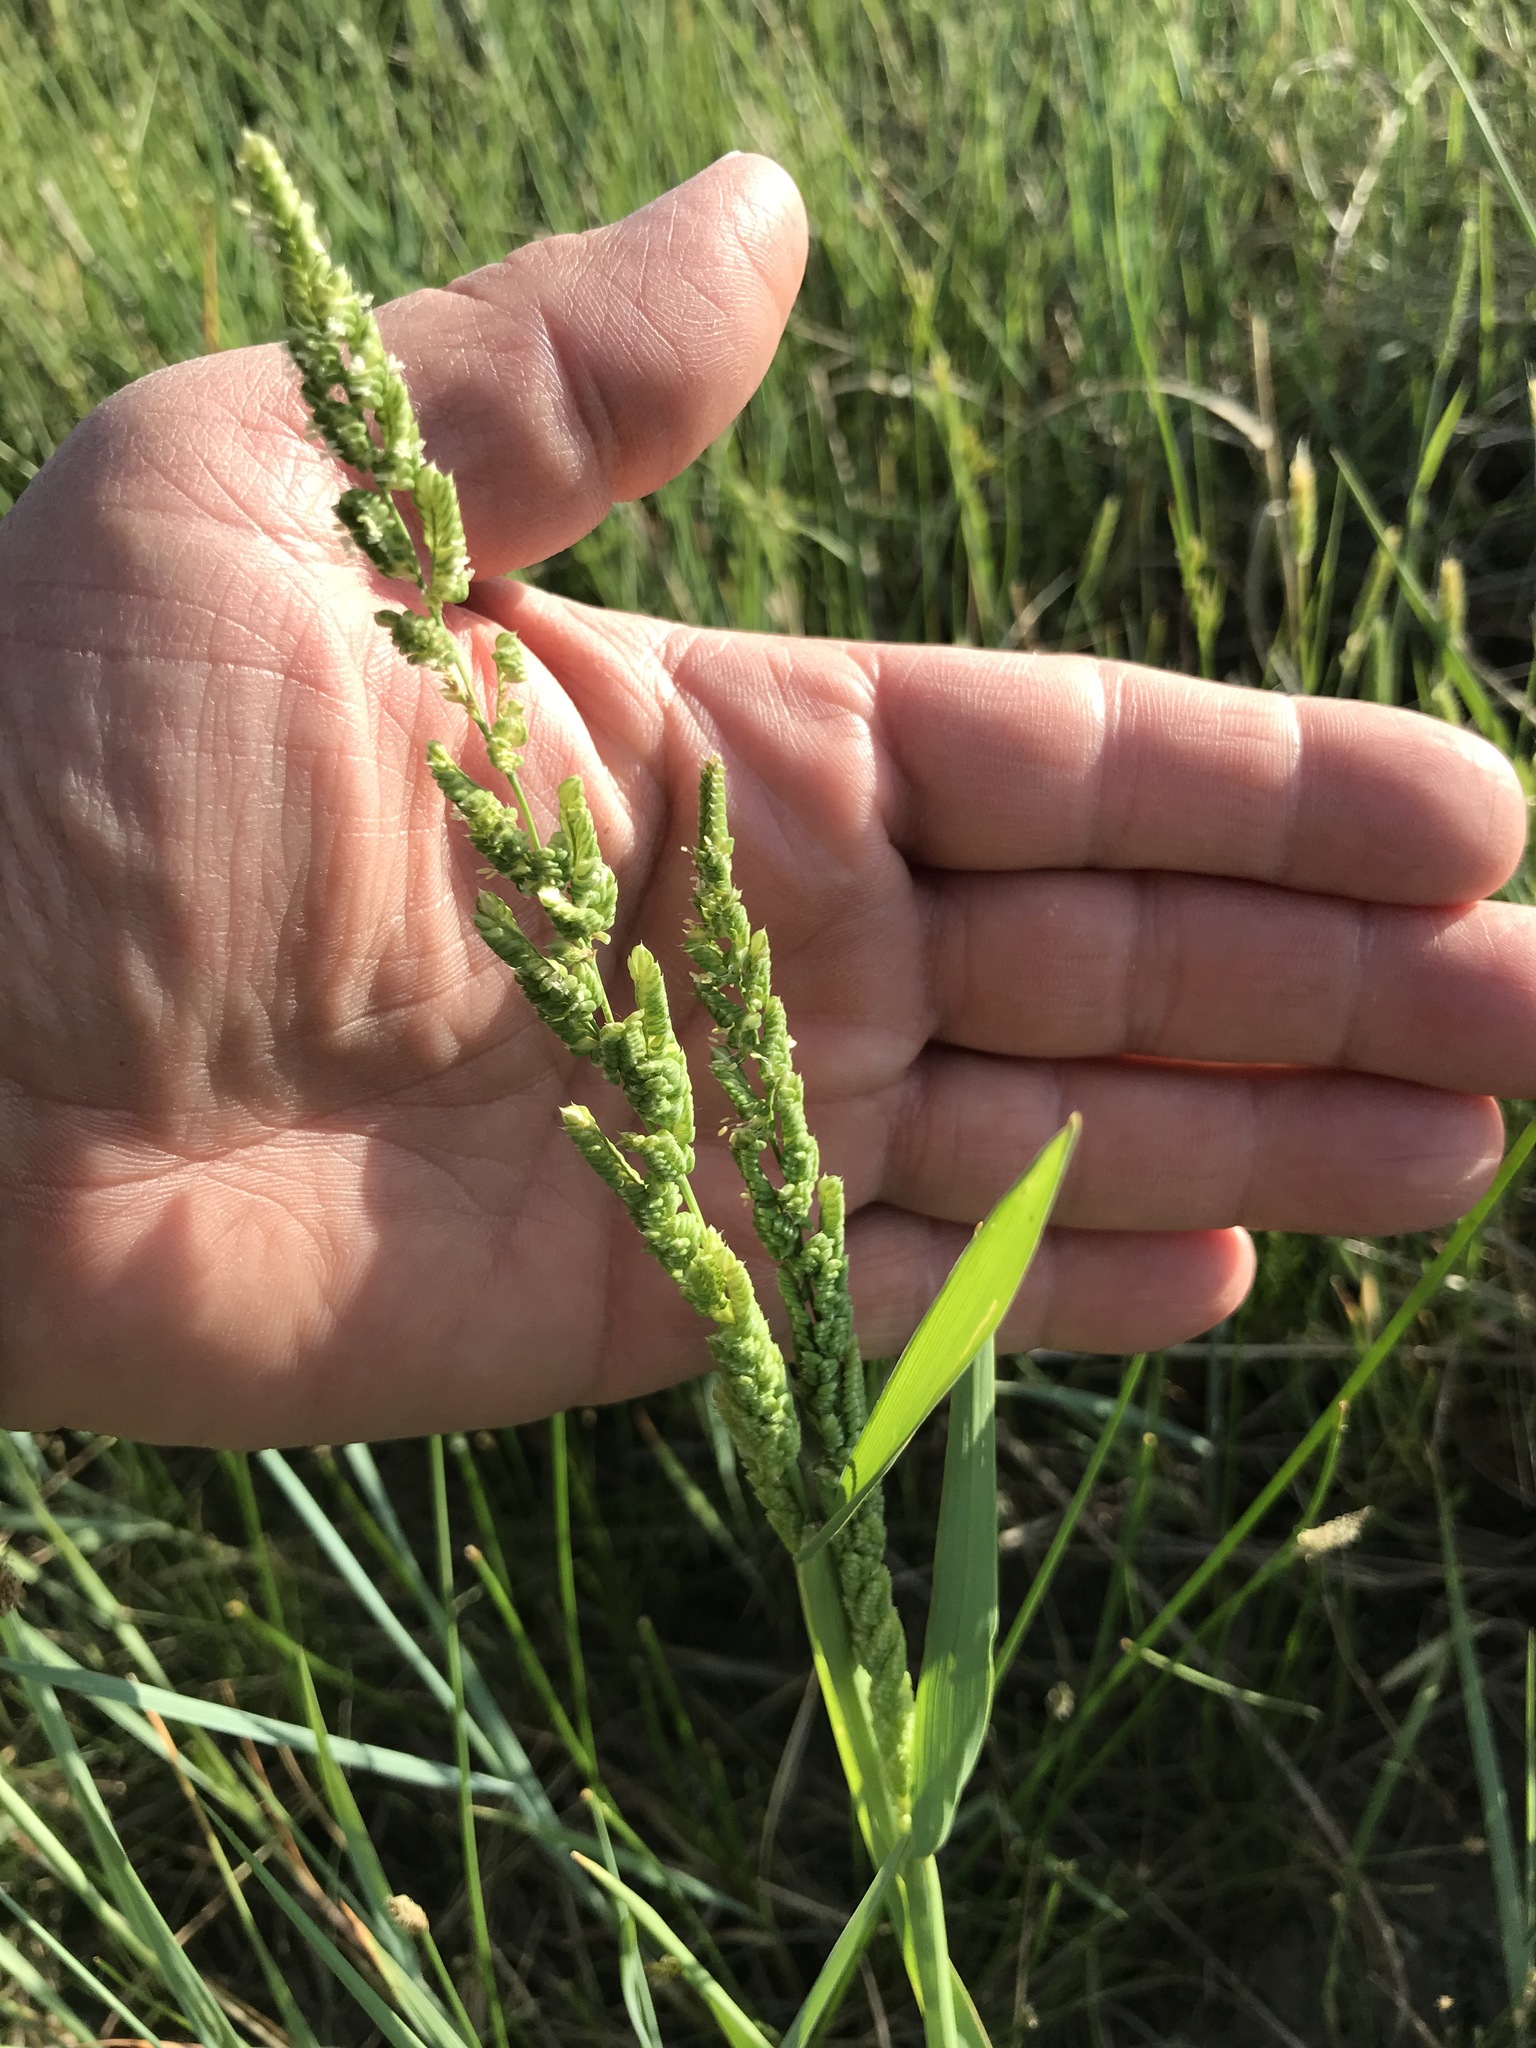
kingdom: Plantae
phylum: Tracheophyta
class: Liliopsida
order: Poales
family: Poaceae
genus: Beckmannia
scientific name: Beckmannia syzigachne
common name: American slough-grass
